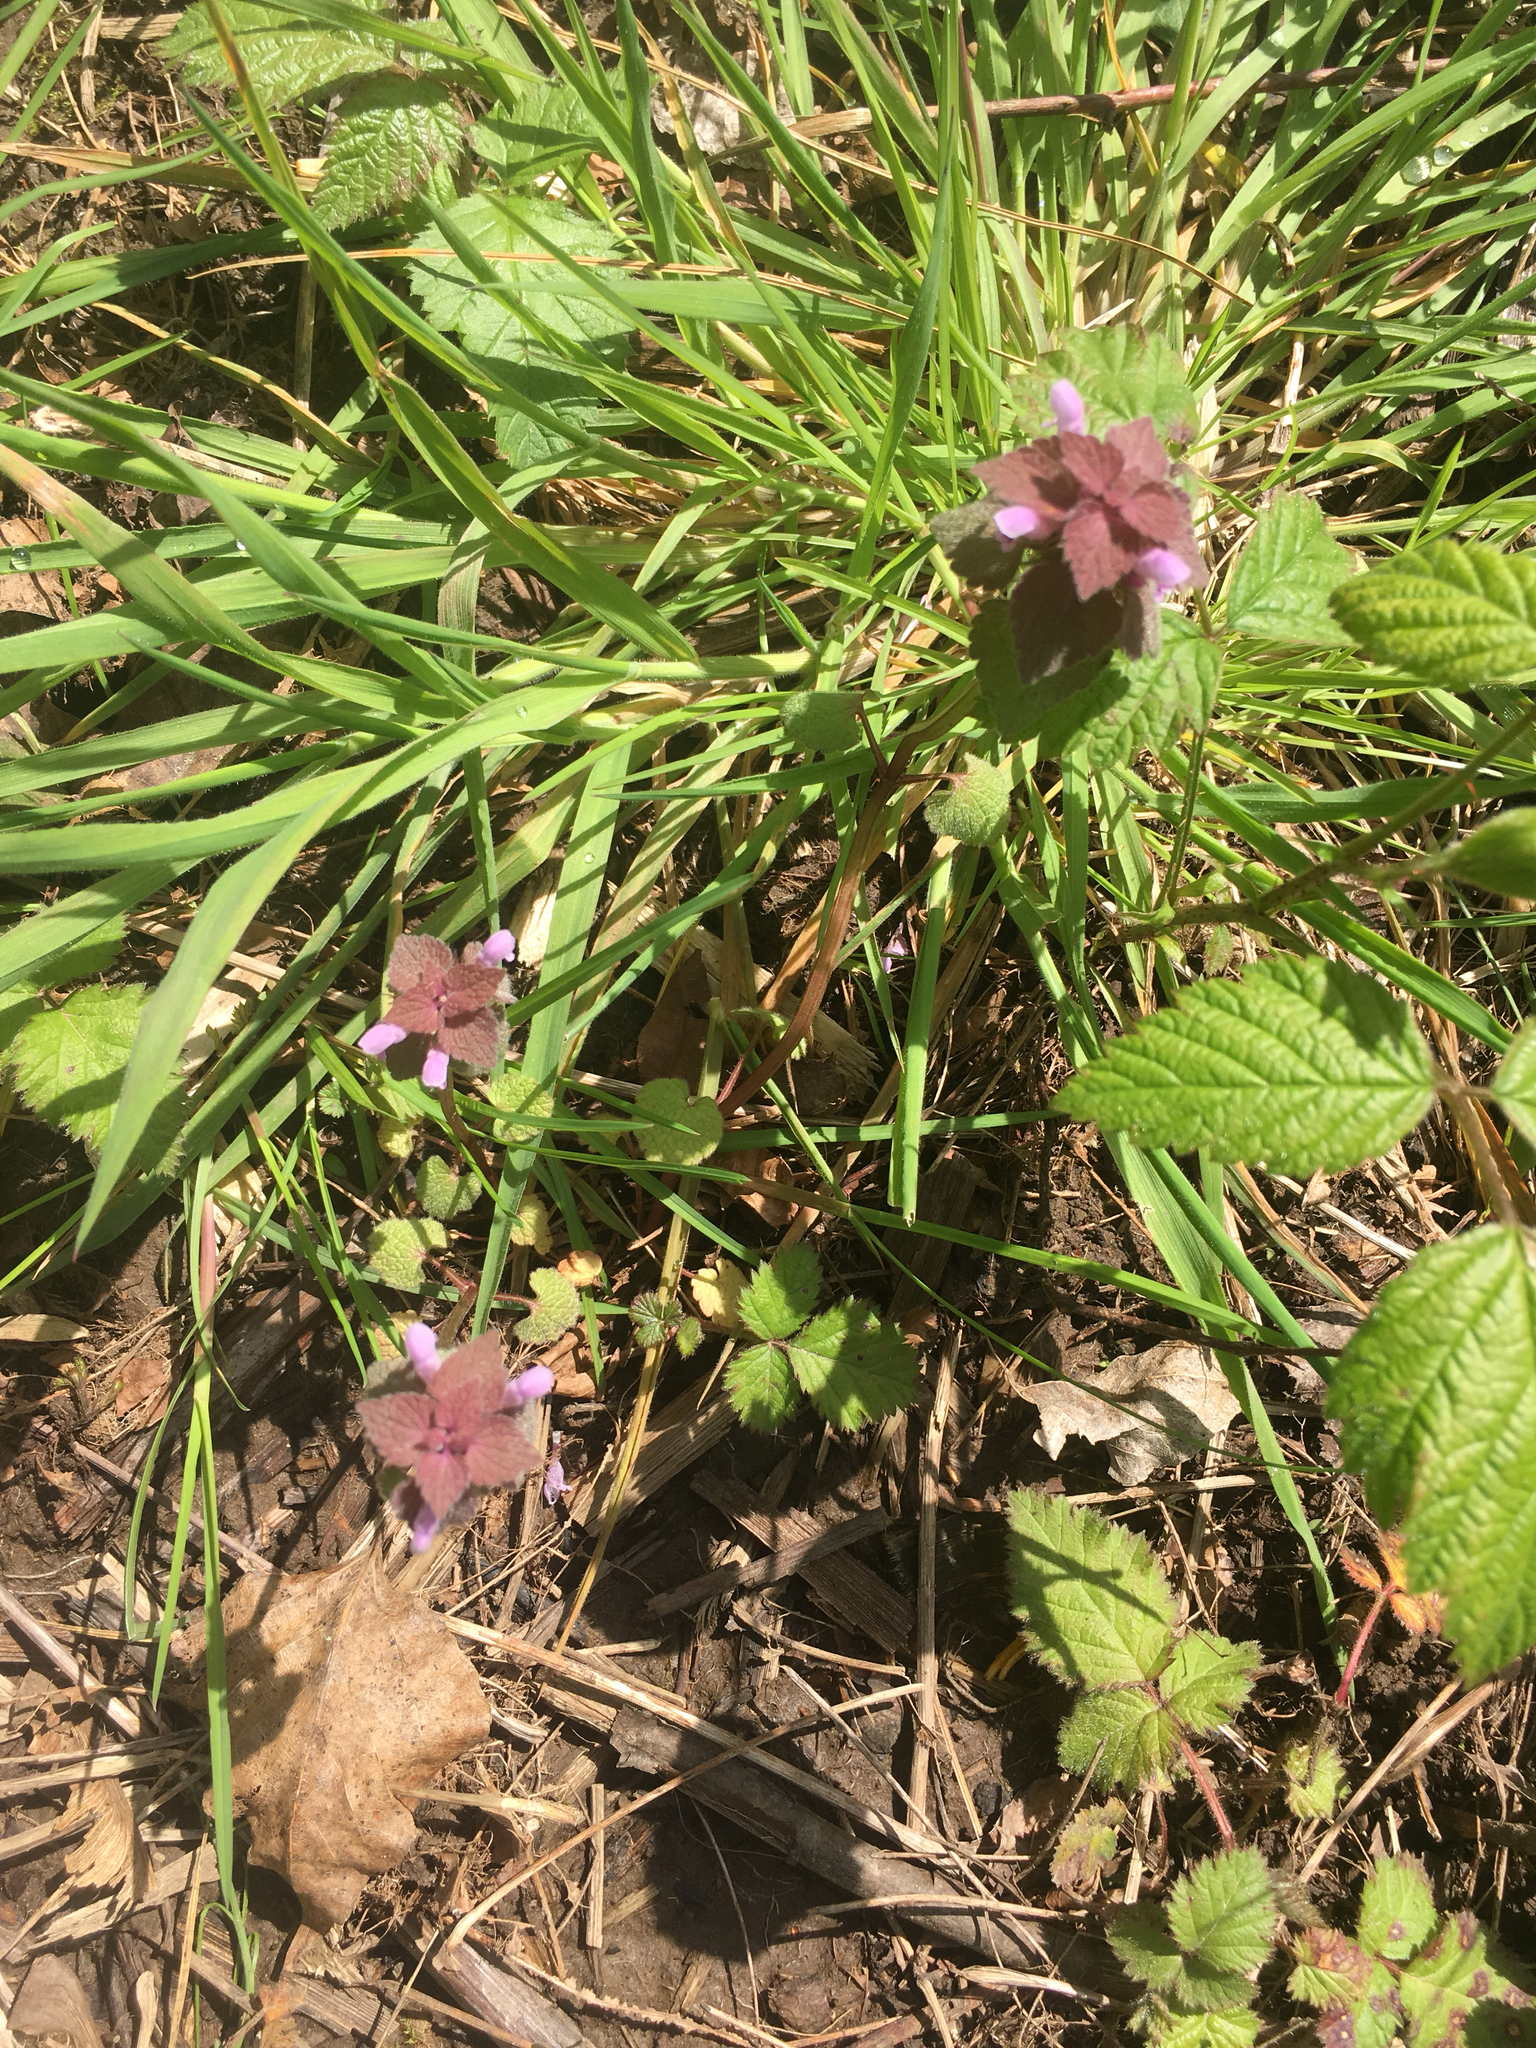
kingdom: Plantae
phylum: Tracheophyta
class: Magnoliopsida
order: Lamiales
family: Lamiaceae
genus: Lamium
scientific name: Lamium purpureum
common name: Red dead-nettle
